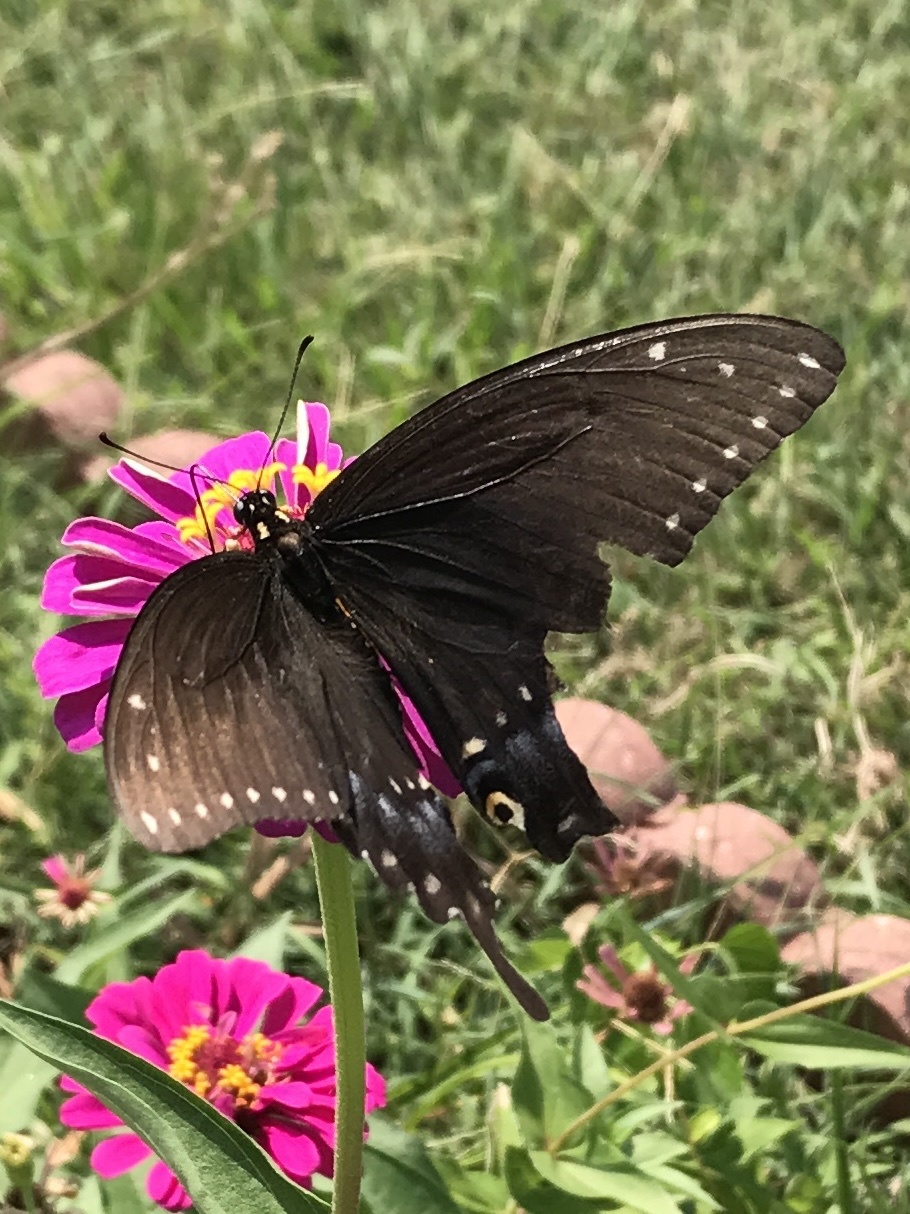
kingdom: Animalia
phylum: Arthropoda
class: Insecta
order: Lepidoptera
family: Papilionidae
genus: Papilio
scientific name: Papilio polyxenes
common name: Black swallowtail
